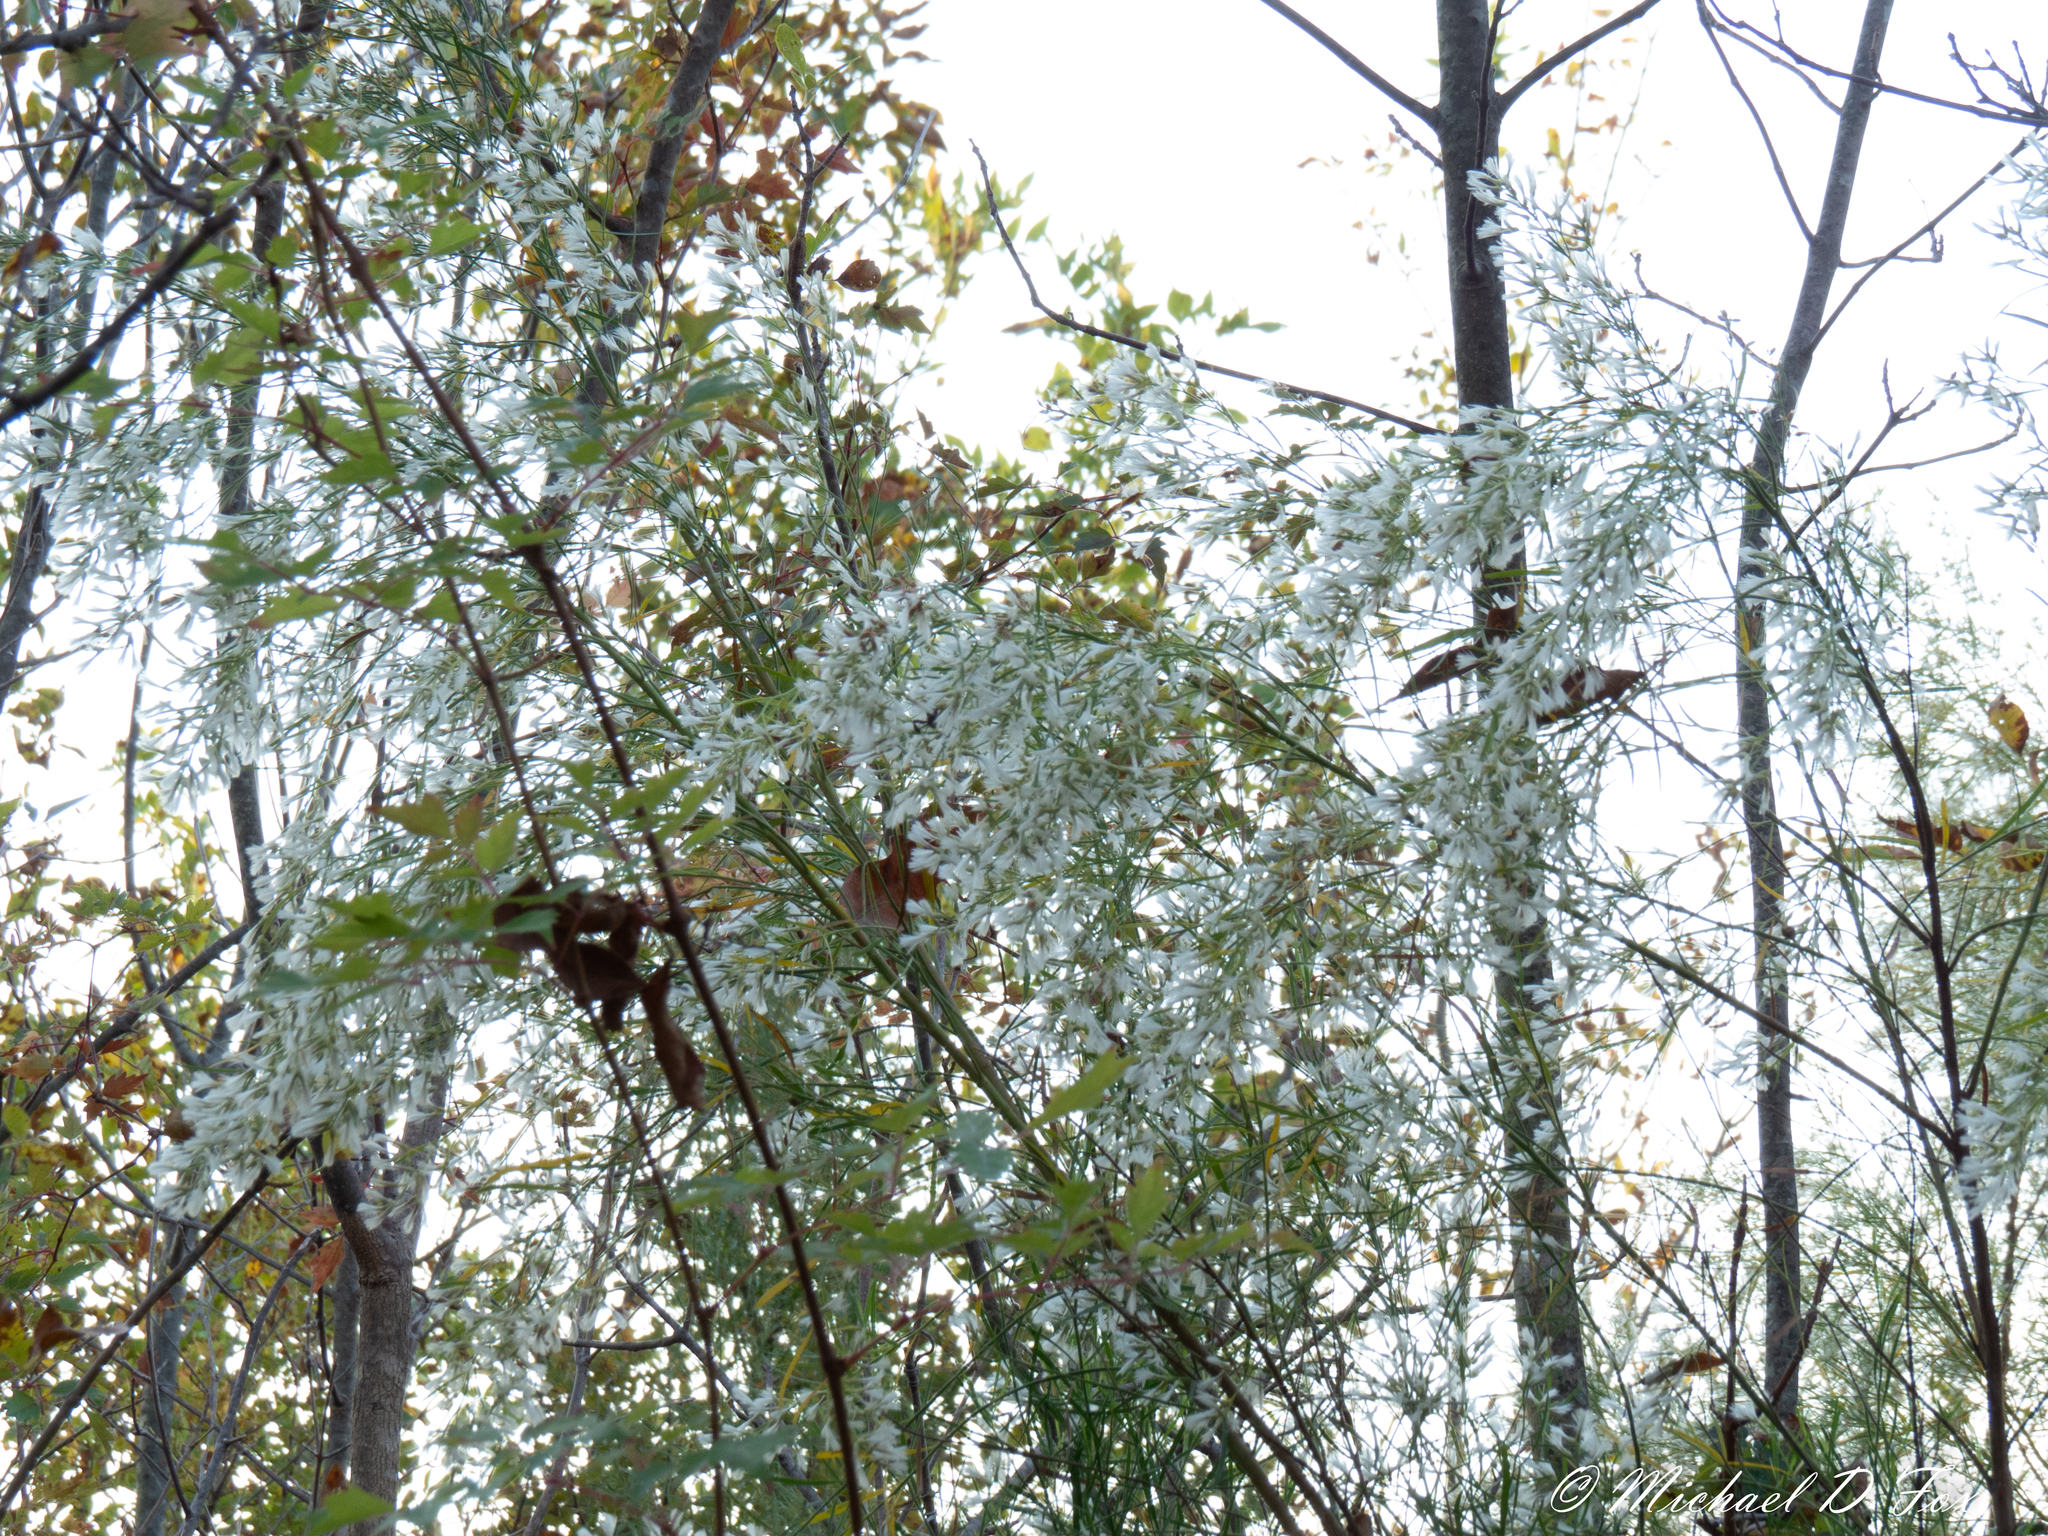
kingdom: Plantae
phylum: Tracheophyta
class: Magnoliopsida
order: Asterales
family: Asteraceae
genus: Baccharis
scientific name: Baccharis neglecta
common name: Roosevelt-weed
